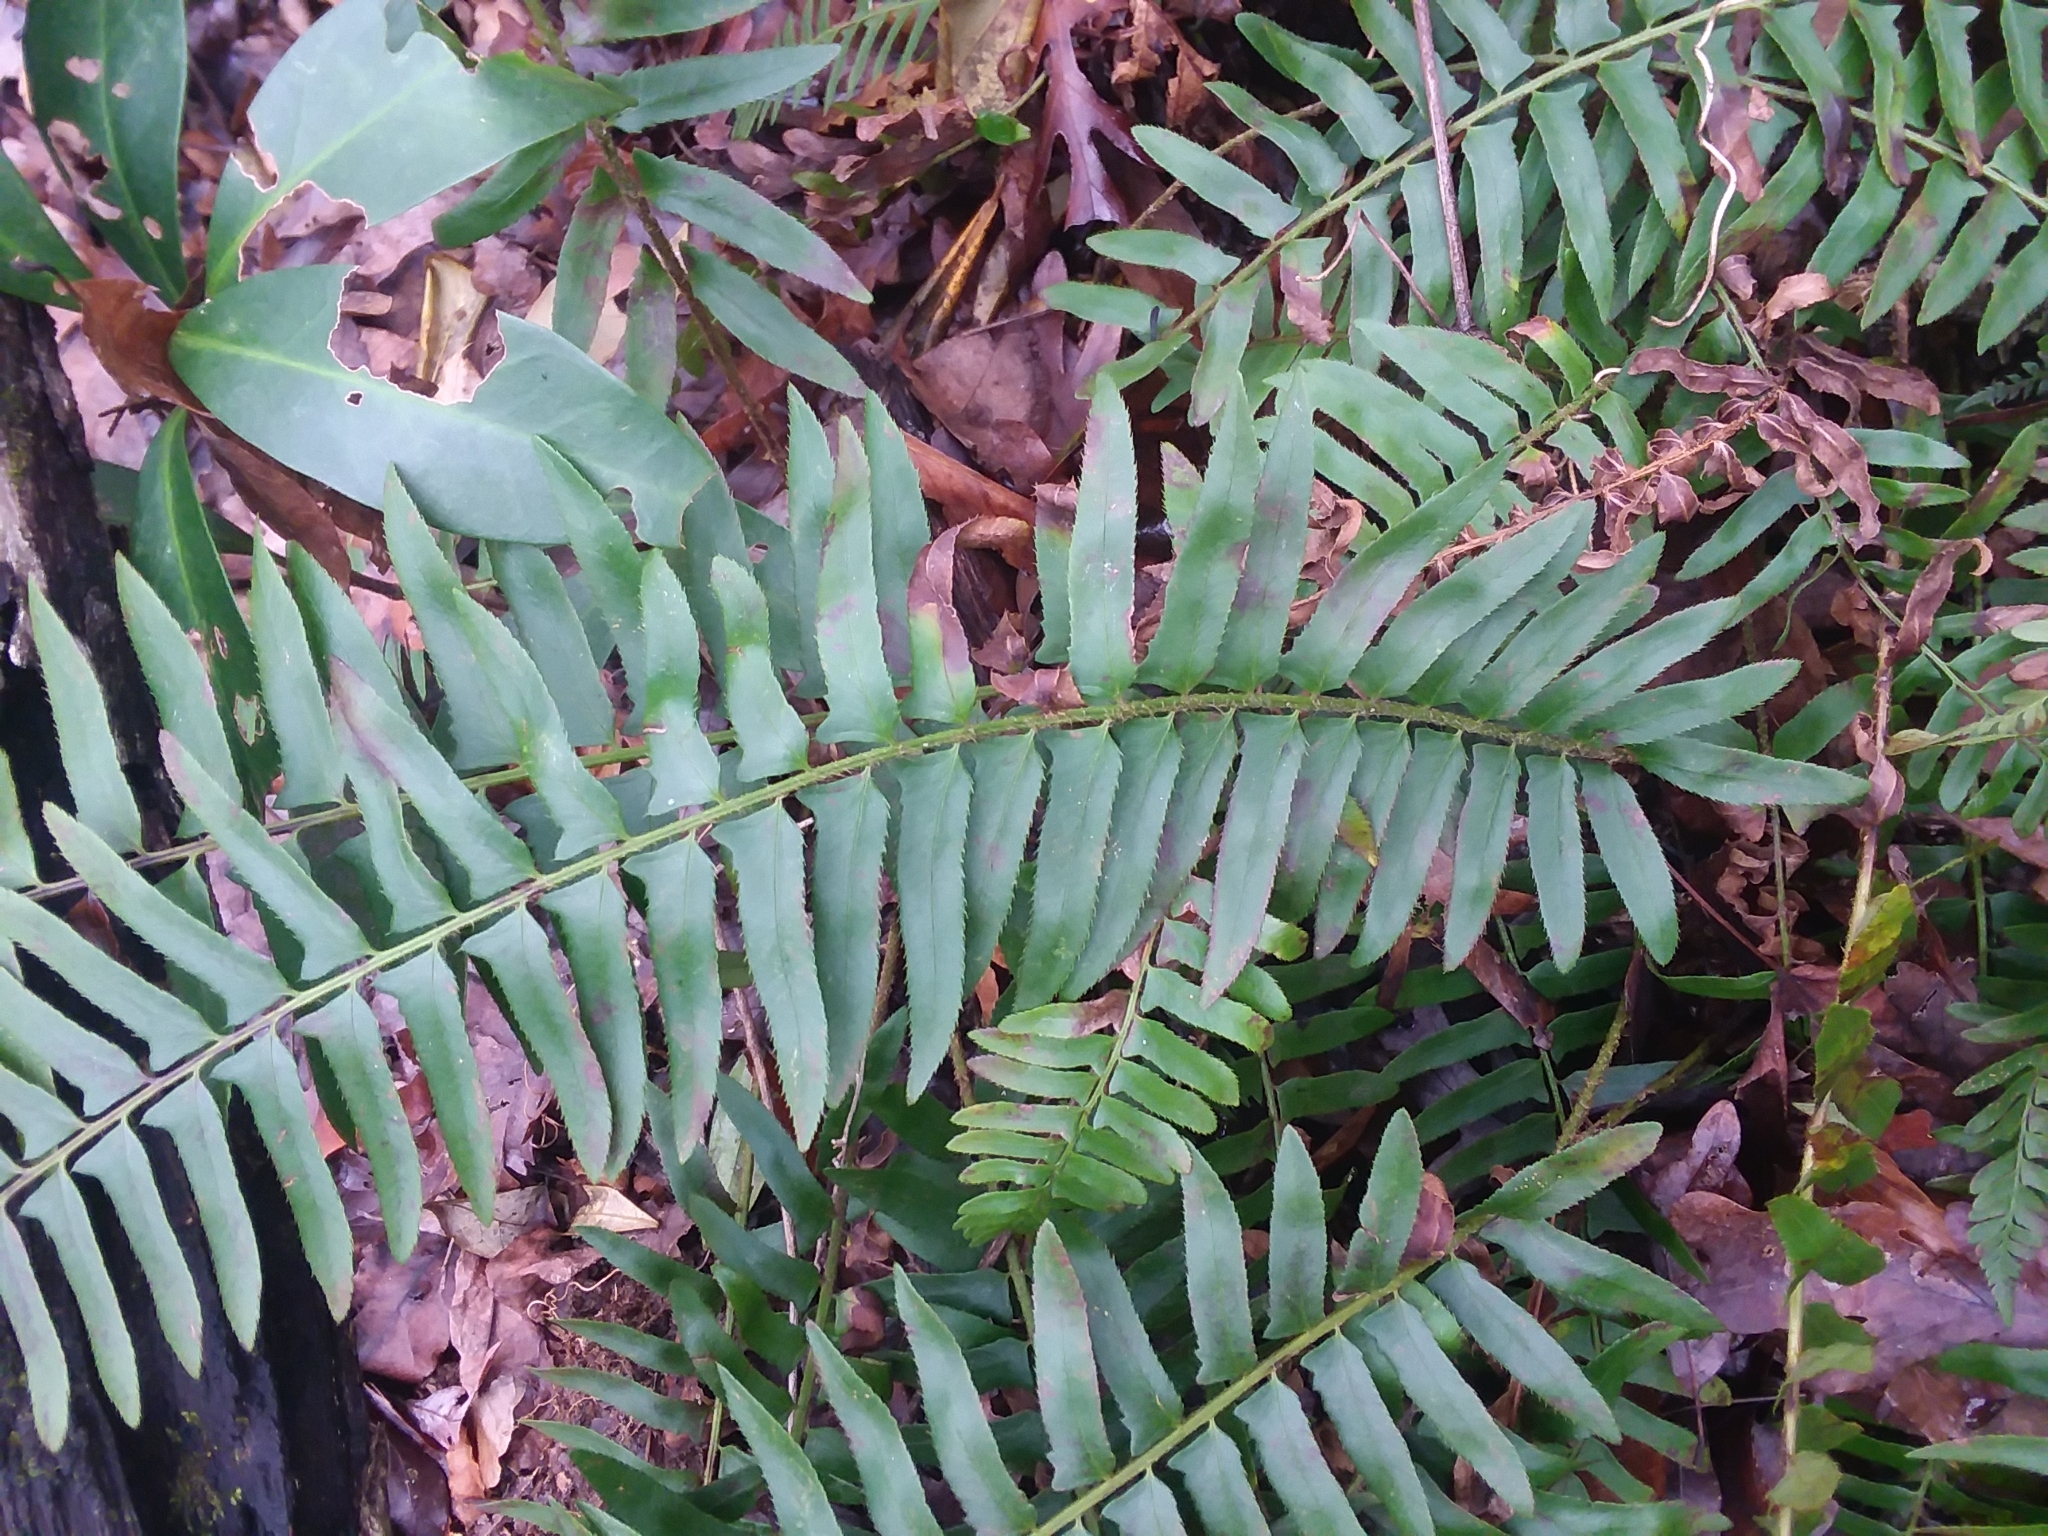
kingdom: Plantae
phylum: Tracheophyta
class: Polypodiopsida
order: Polypodiales
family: Dryopteridaceae
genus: Polystichum
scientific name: Polystichum acrostichoides
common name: Christmas fern
